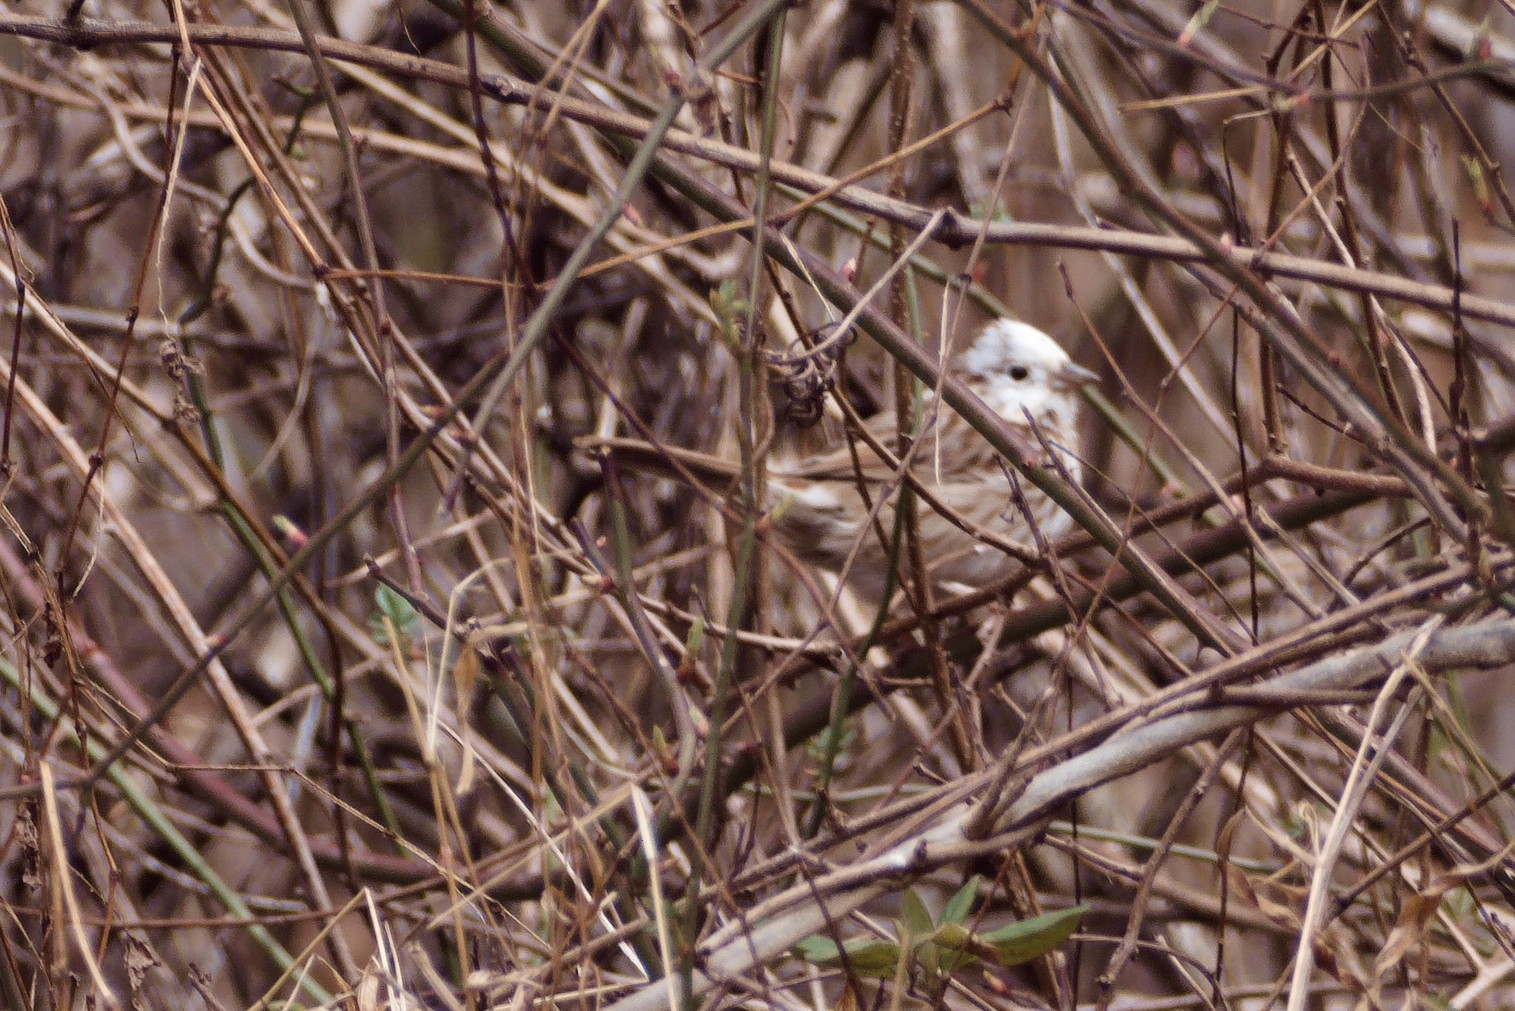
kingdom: Animalia
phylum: Chordata
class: Aves
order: Passeriformes
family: Passerellidae
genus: Melospiza
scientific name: Melospiza melodia
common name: Song sparrow
